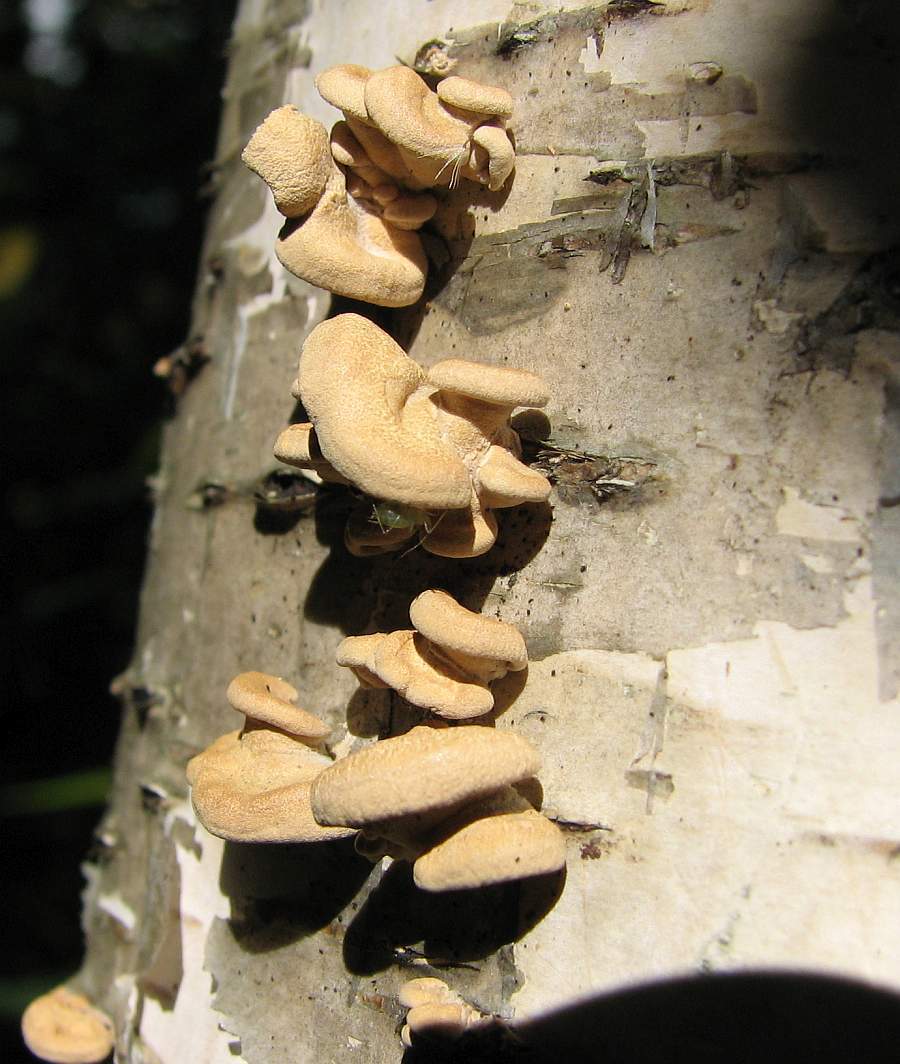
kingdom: Fungi
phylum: Basidiomycota
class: Agaricomycetes
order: Agaricales
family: Mycenaceae
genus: Panellus
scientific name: Panellus stipticus
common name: Bitter oysterling
